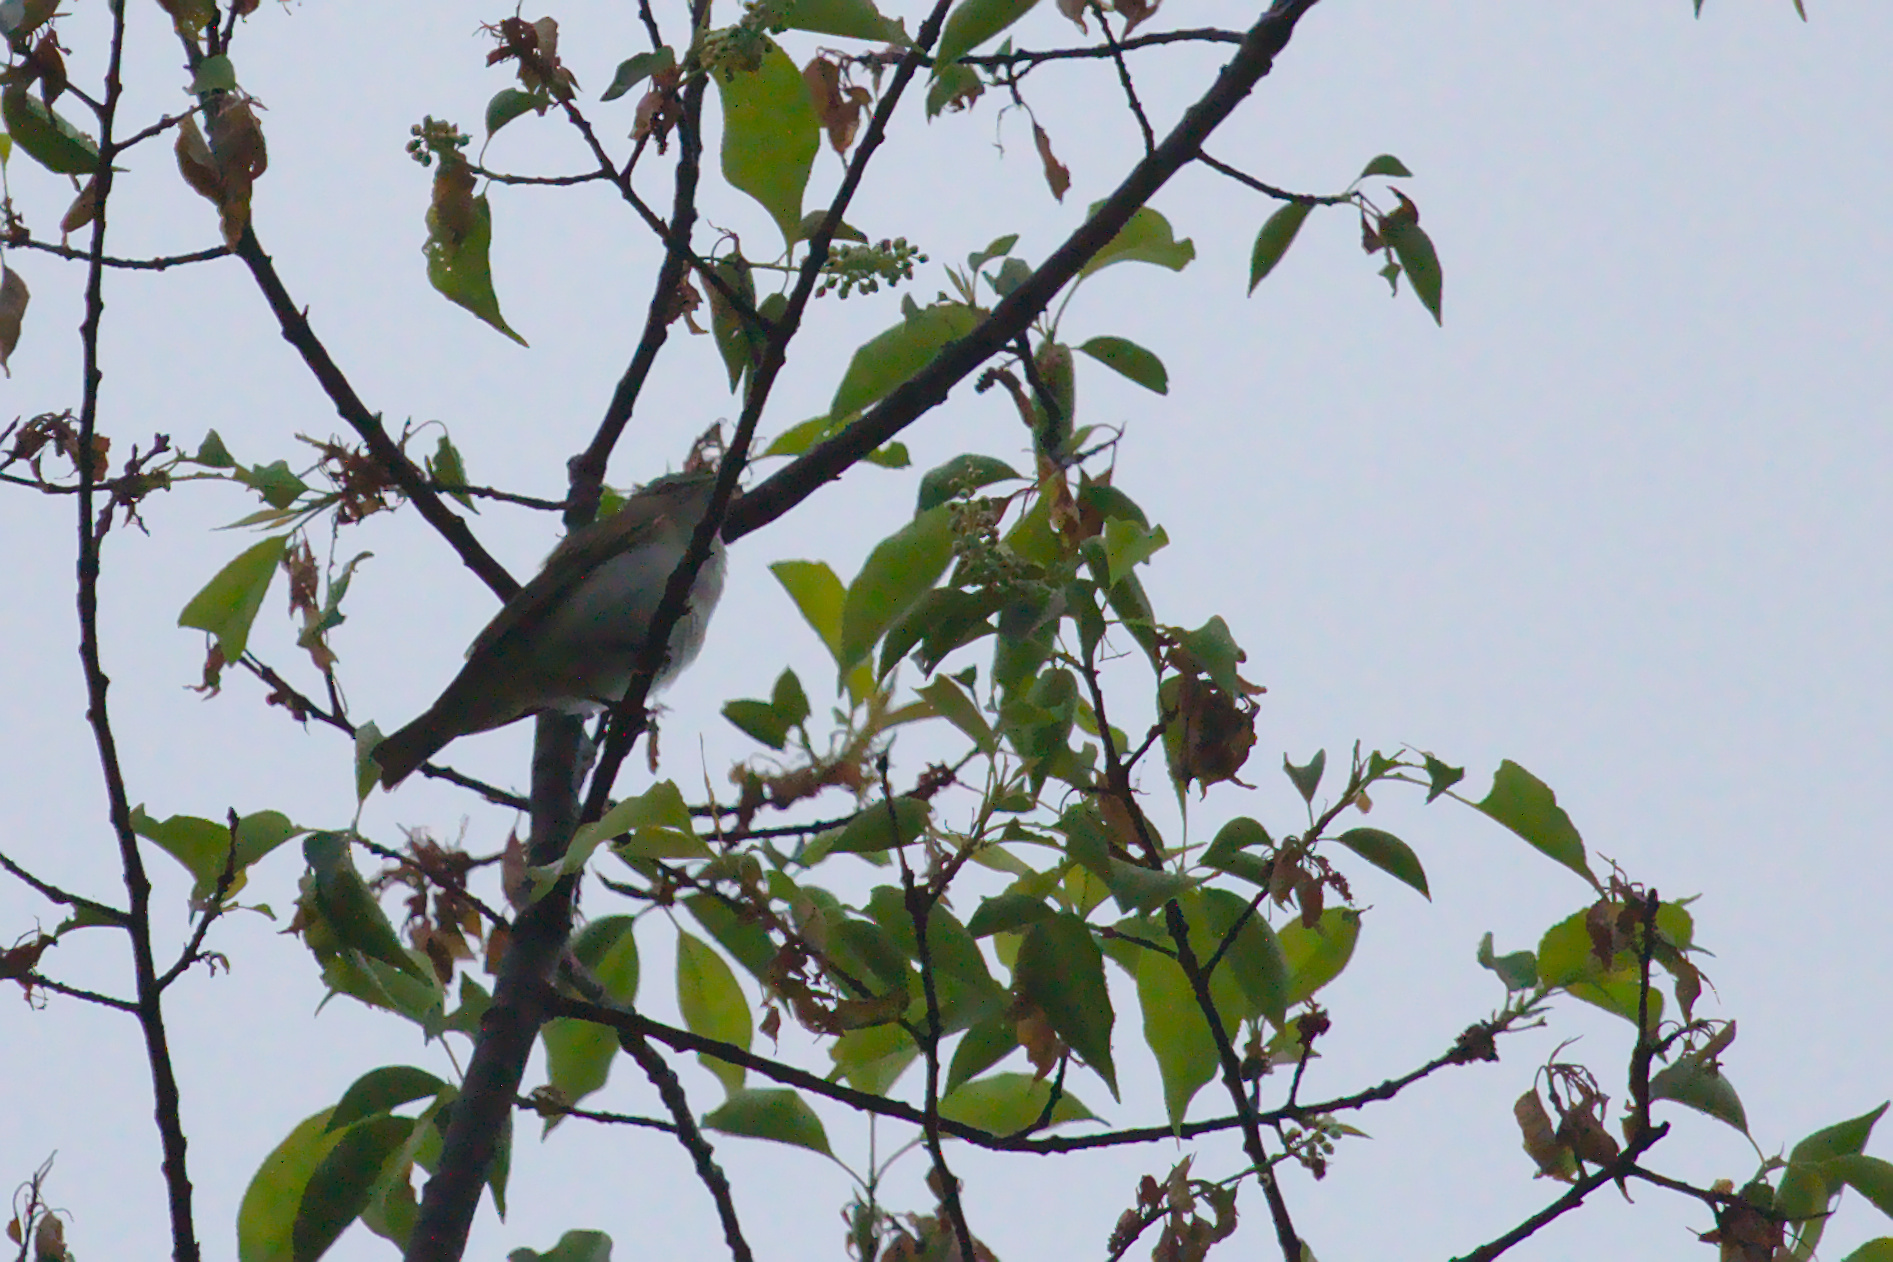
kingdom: Animalia
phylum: Chordata
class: Aves
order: Passeriformes
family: Vireonidae
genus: Vireo
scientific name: Vireo olivaceus
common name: Red-eyed vireo
